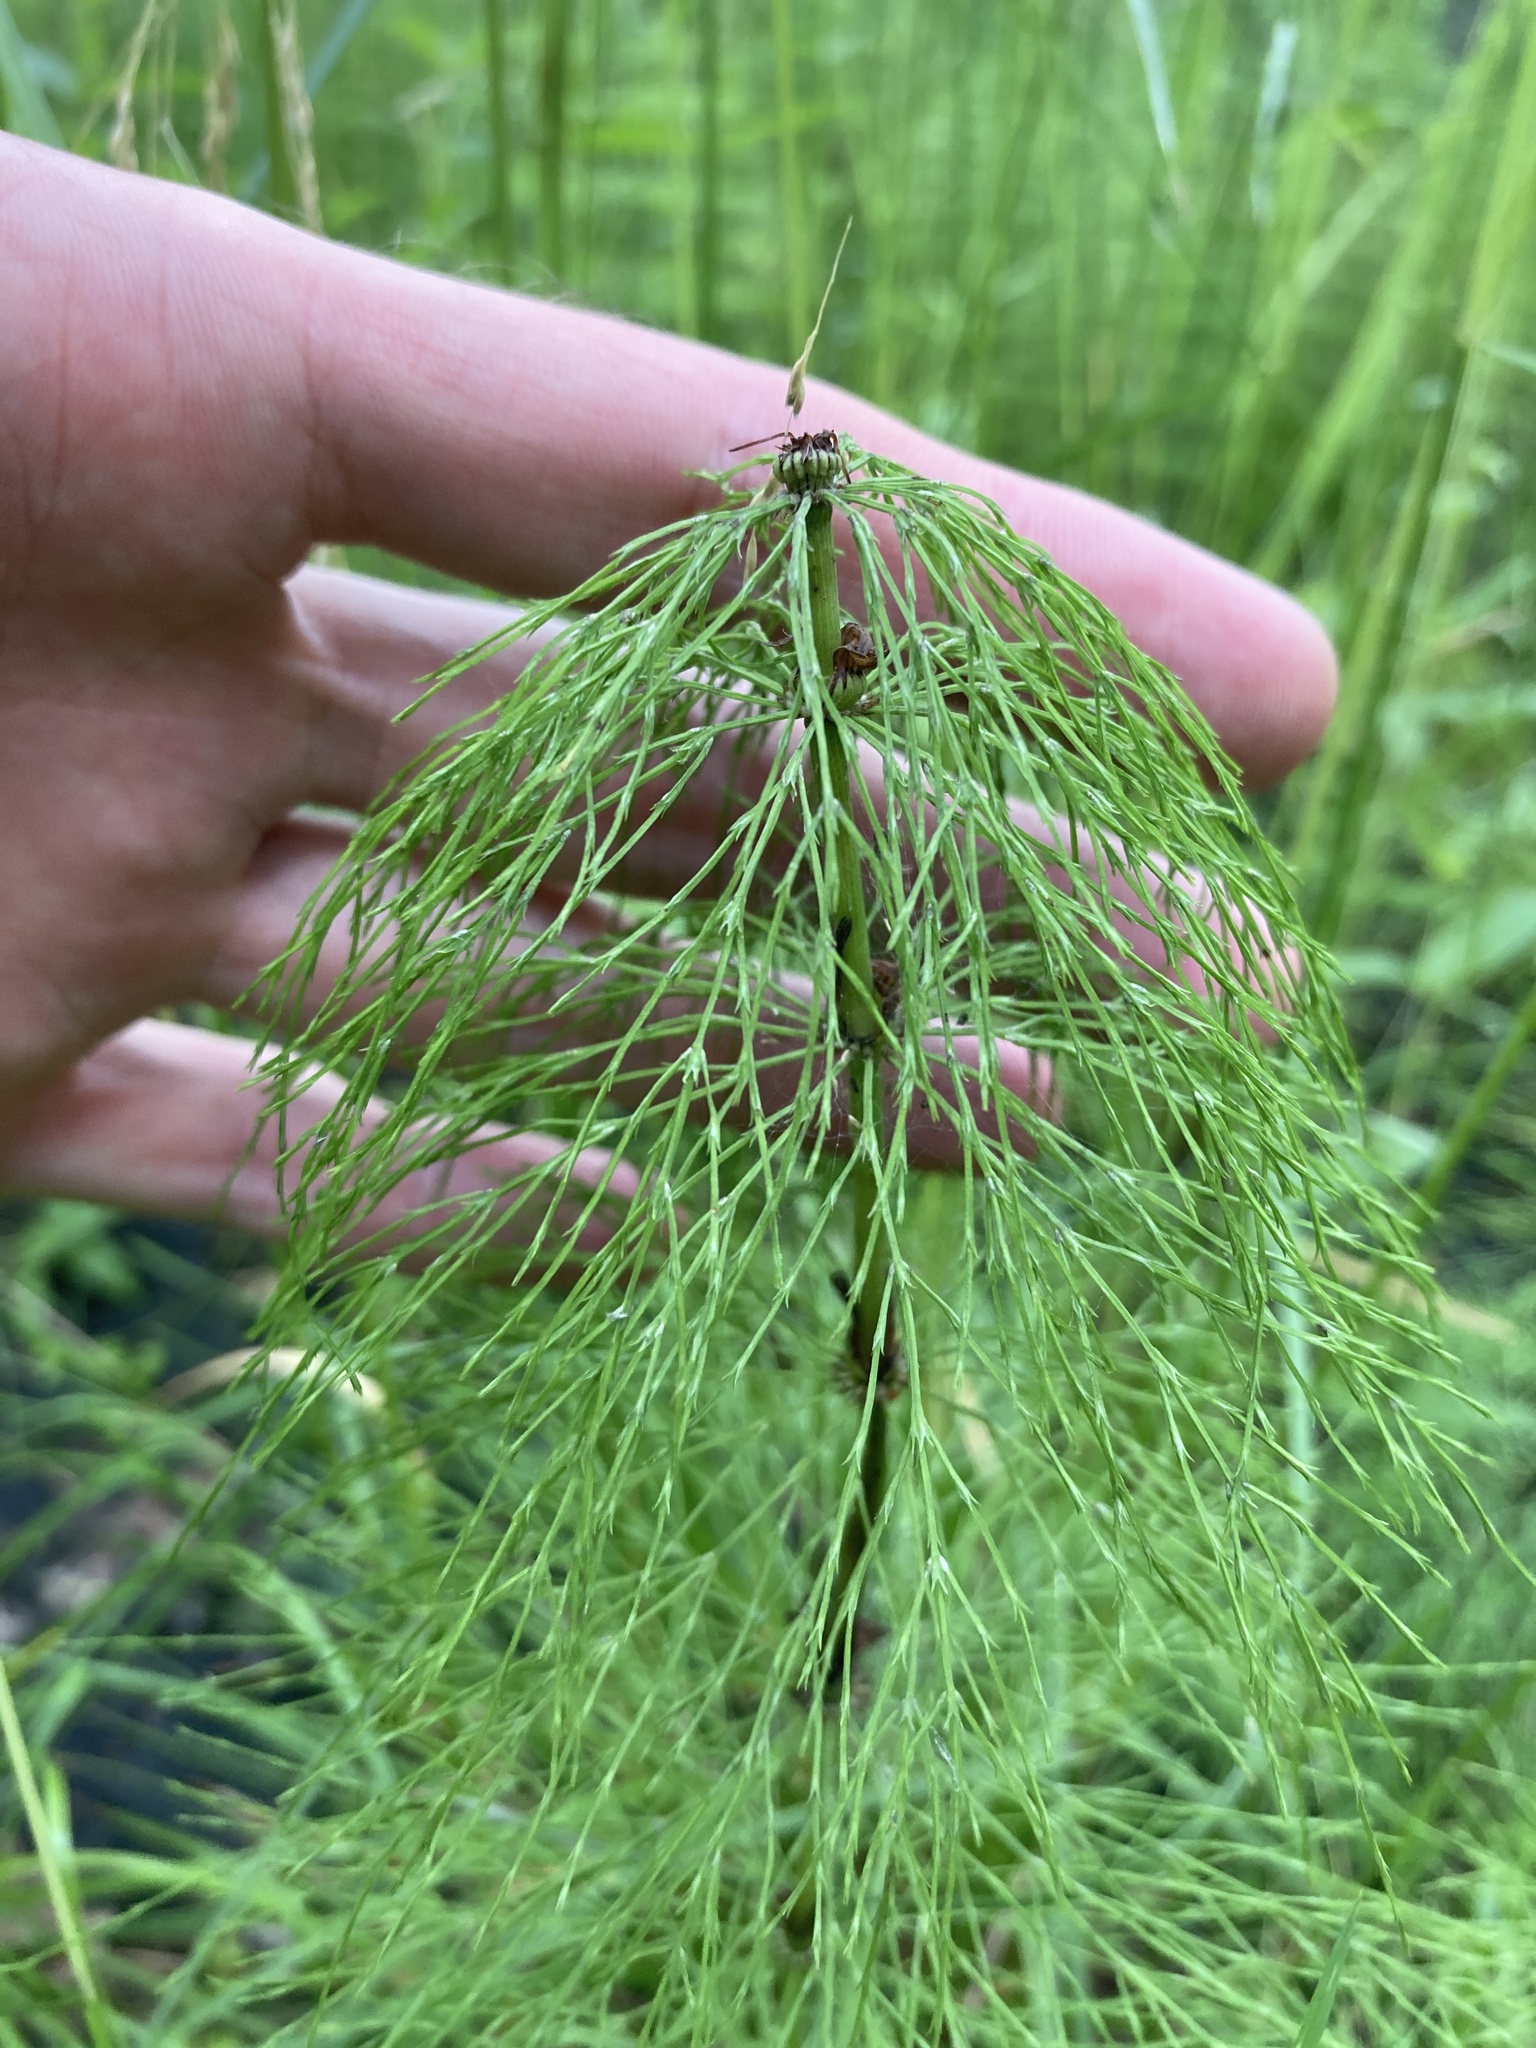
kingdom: Plantae
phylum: Tracheophyta
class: Polypodiopsida
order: Equisetales
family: Equisetaceae
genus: Equisetum
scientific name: Equisetum sylvaticum
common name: Wood horsetail
